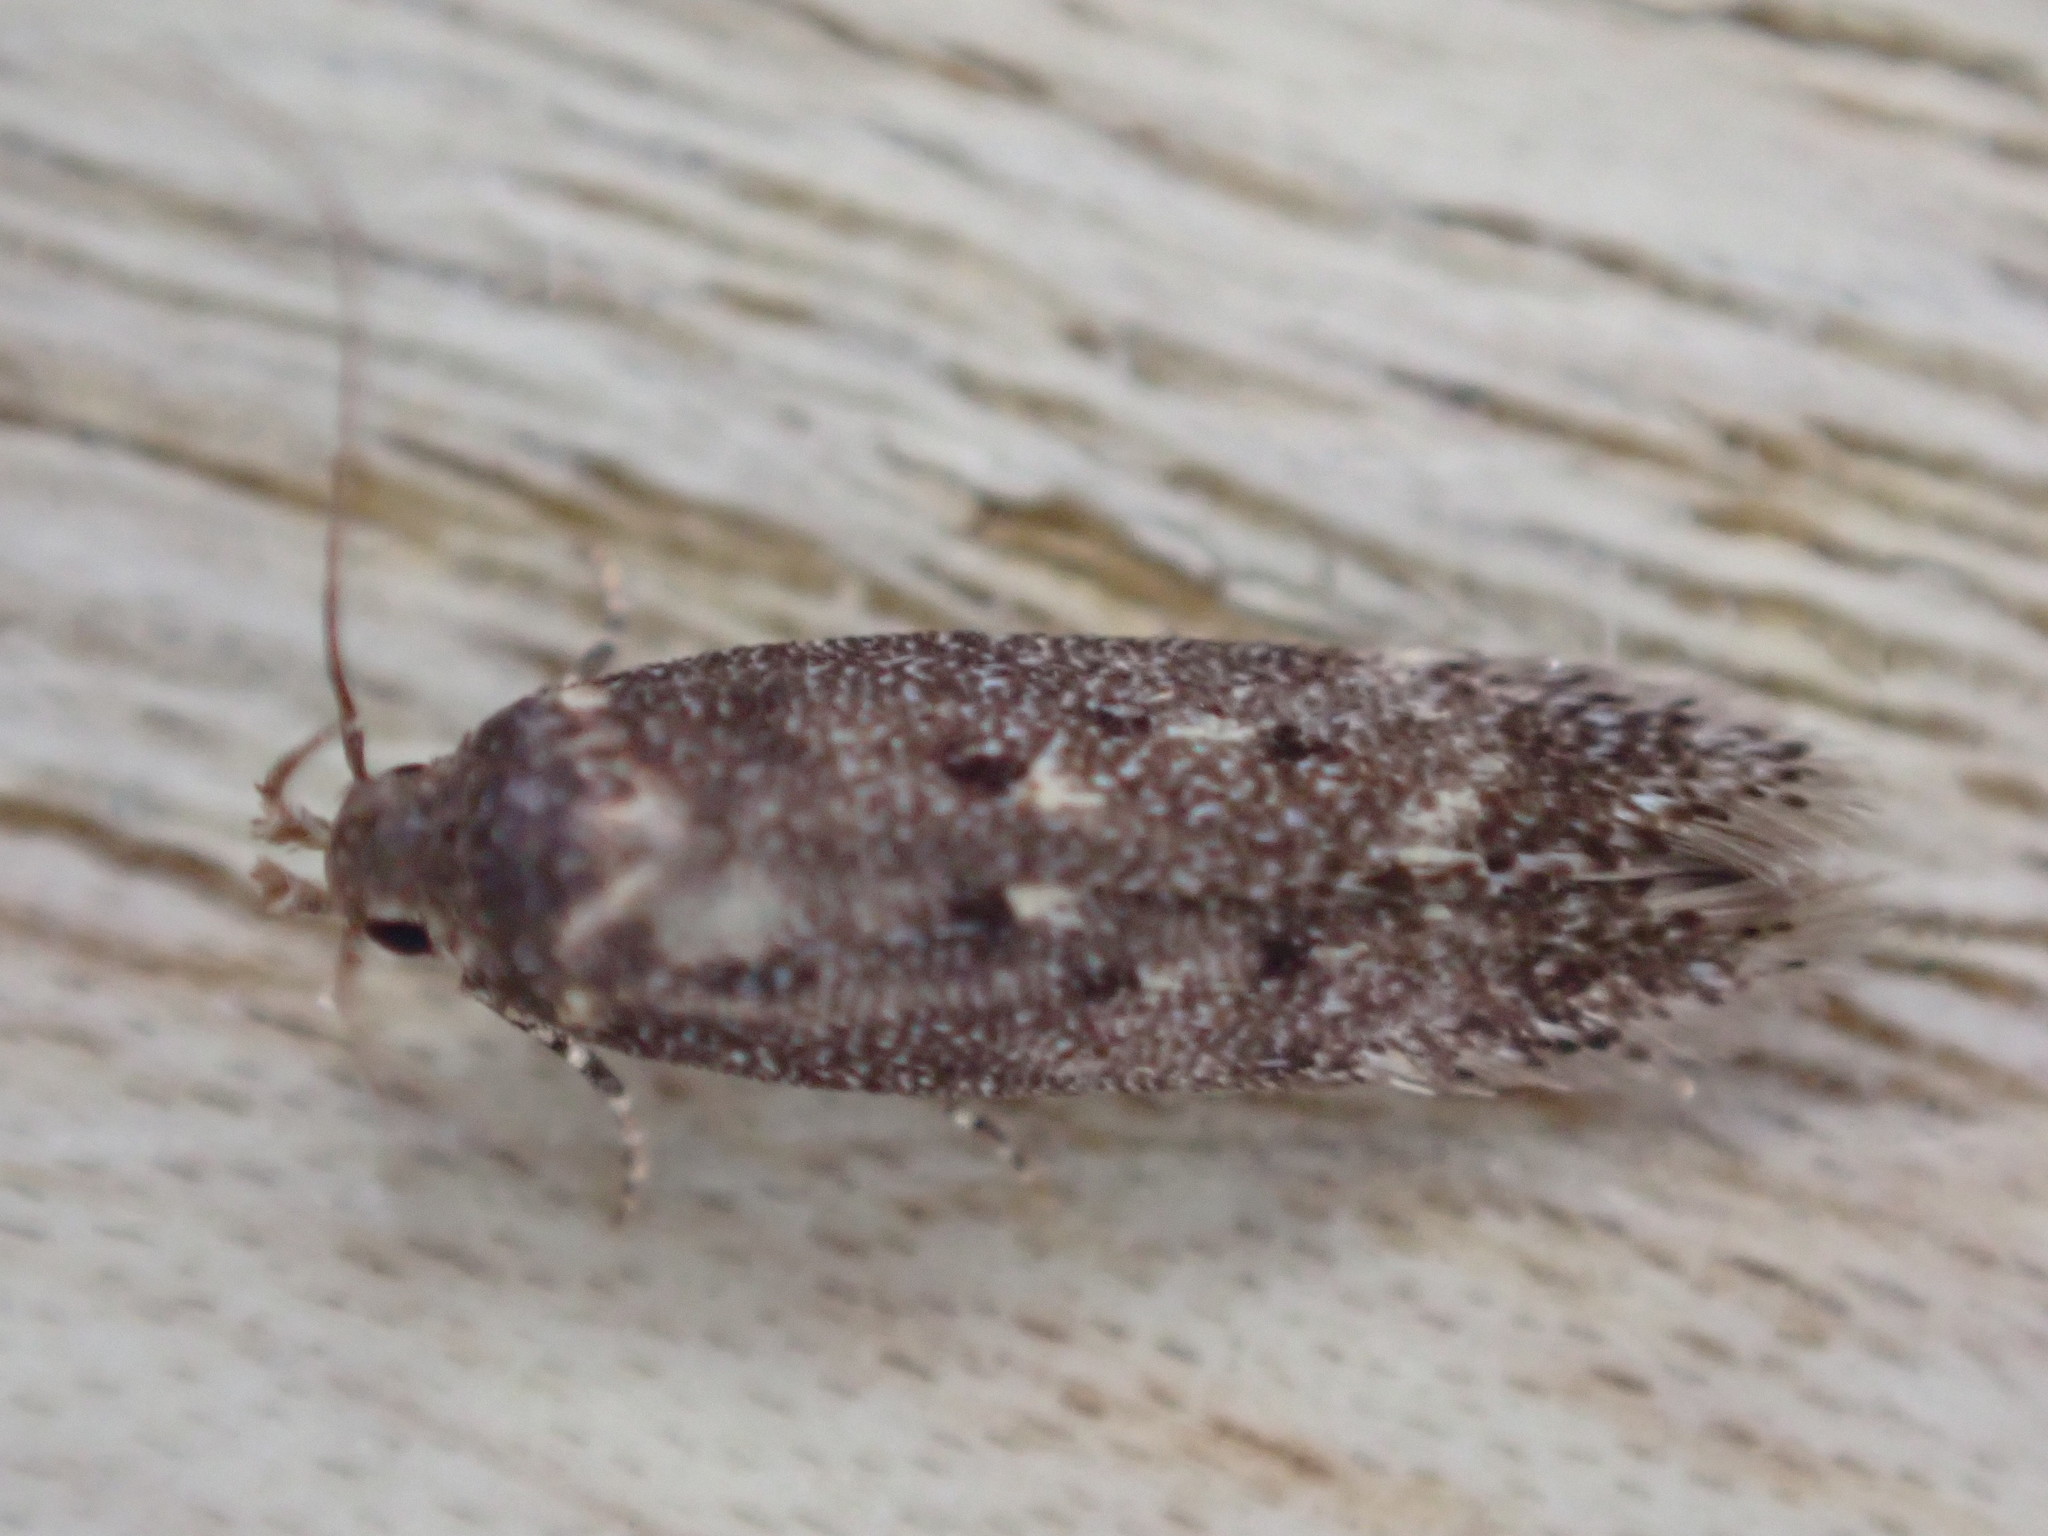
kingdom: Animalia
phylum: Arthropoda
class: Insecta
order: Lepidoptera
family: Oecophoridae
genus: Hofmannophila
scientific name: Hofmannophila pseudospretella
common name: Brown house moth
